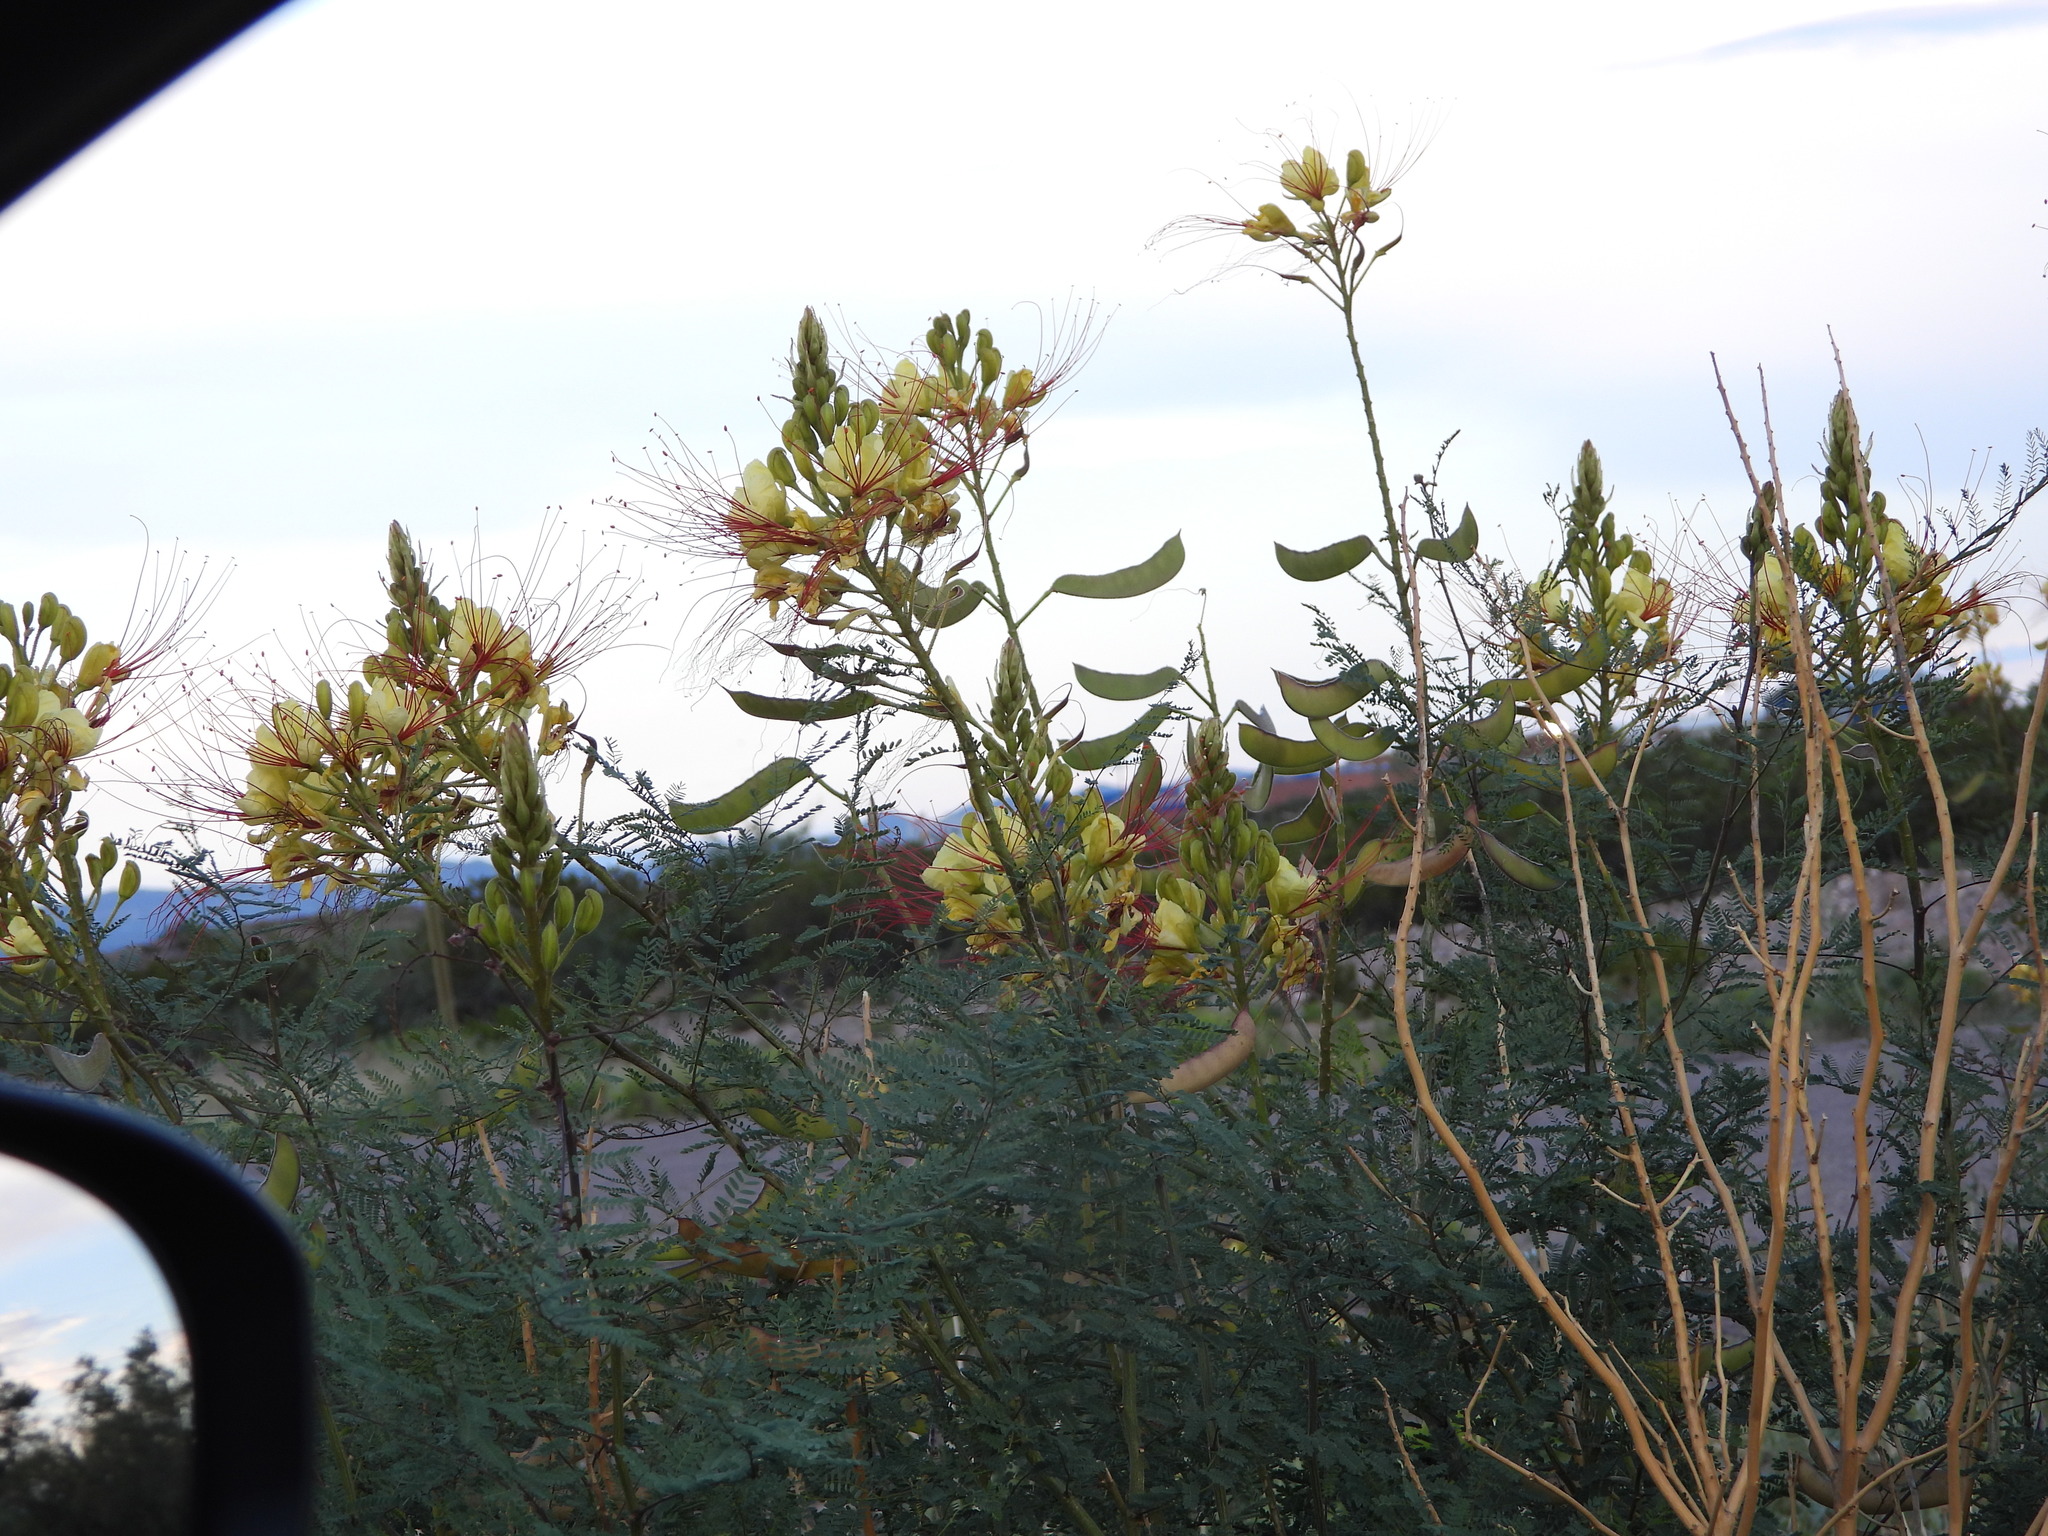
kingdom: Plantae
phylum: Tracheophyta
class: Magnoliopsida
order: Fabales
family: Fabaceae
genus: Erythrostemon
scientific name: Erythrostemon gilliesii
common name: Bird-of-paradise shrub
